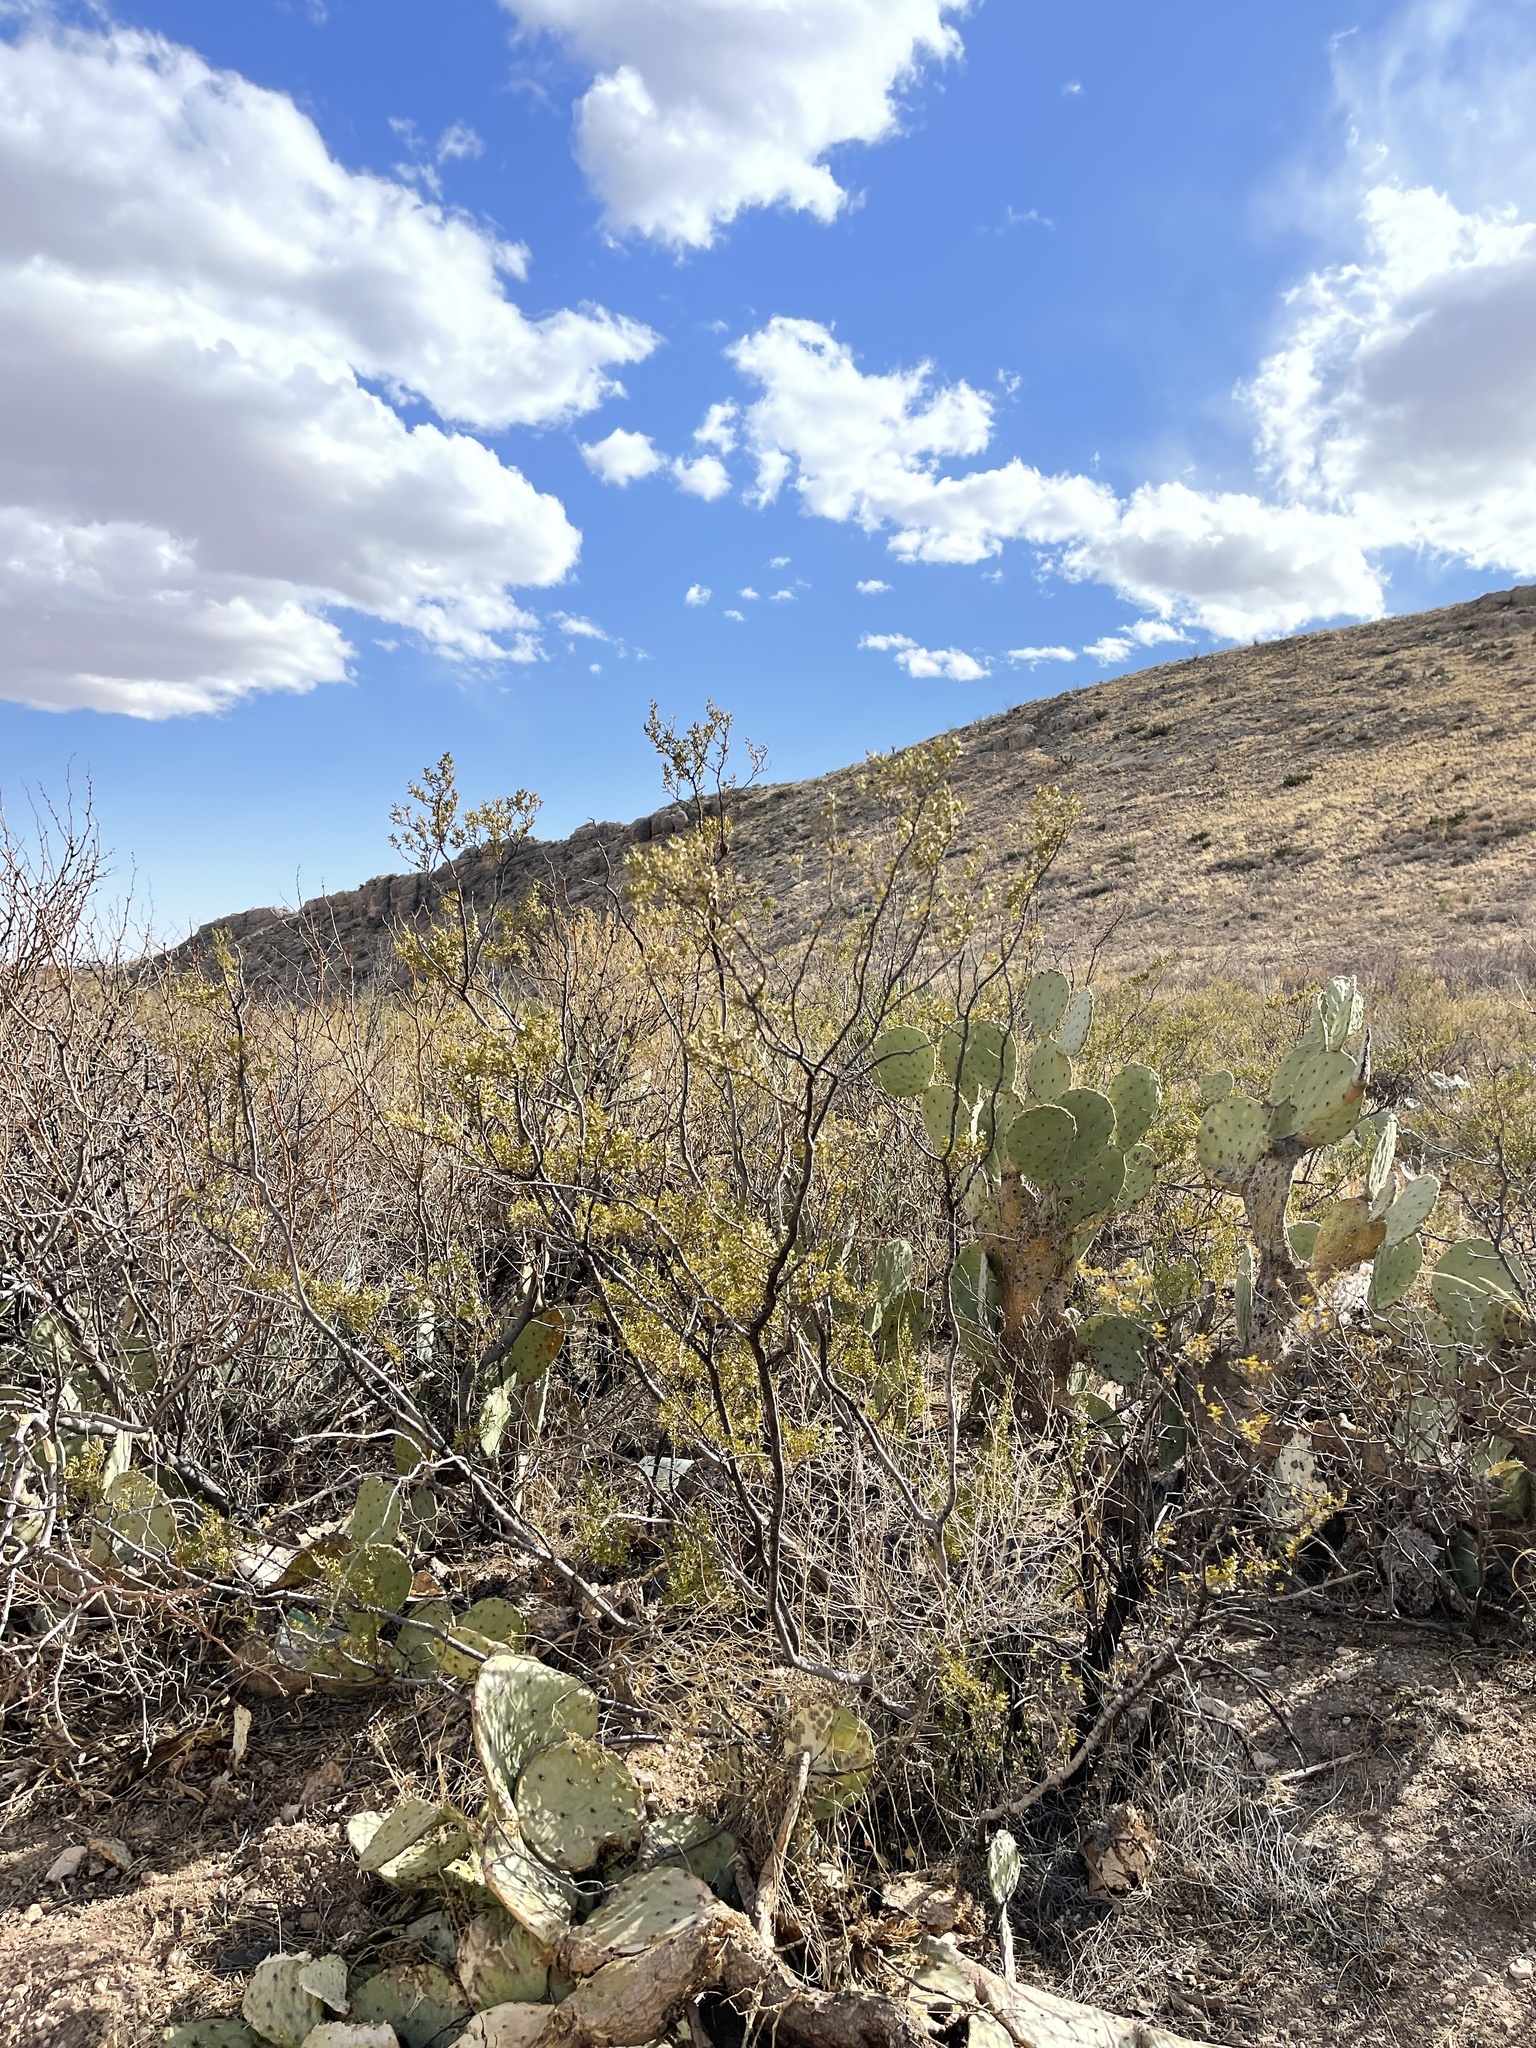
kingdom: Plantae
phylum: Tracheophyta
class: Magnoliopsida
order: Zygophyllales
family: Zygophyllaceae
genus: Larrea
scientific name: Larrea tridentata
